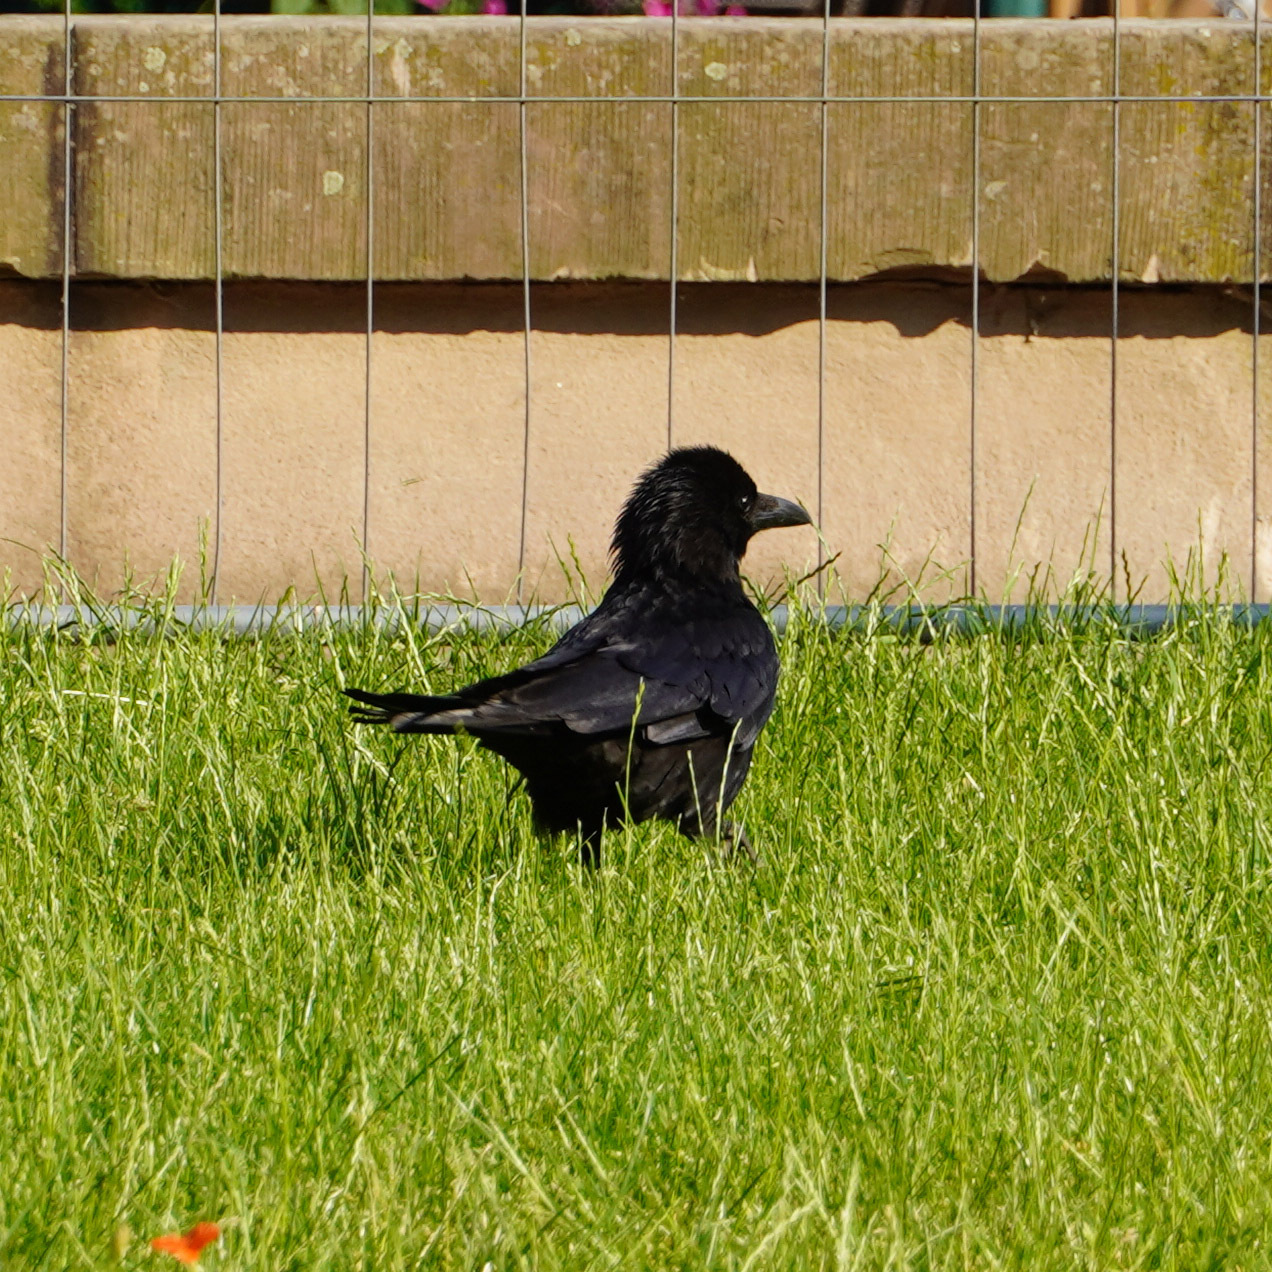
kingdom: Animalia
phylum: Chordata
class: Aves
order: Passeriformes
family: Corvidae
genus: Corvus
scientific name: Corvus corone
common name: Carrion crow
